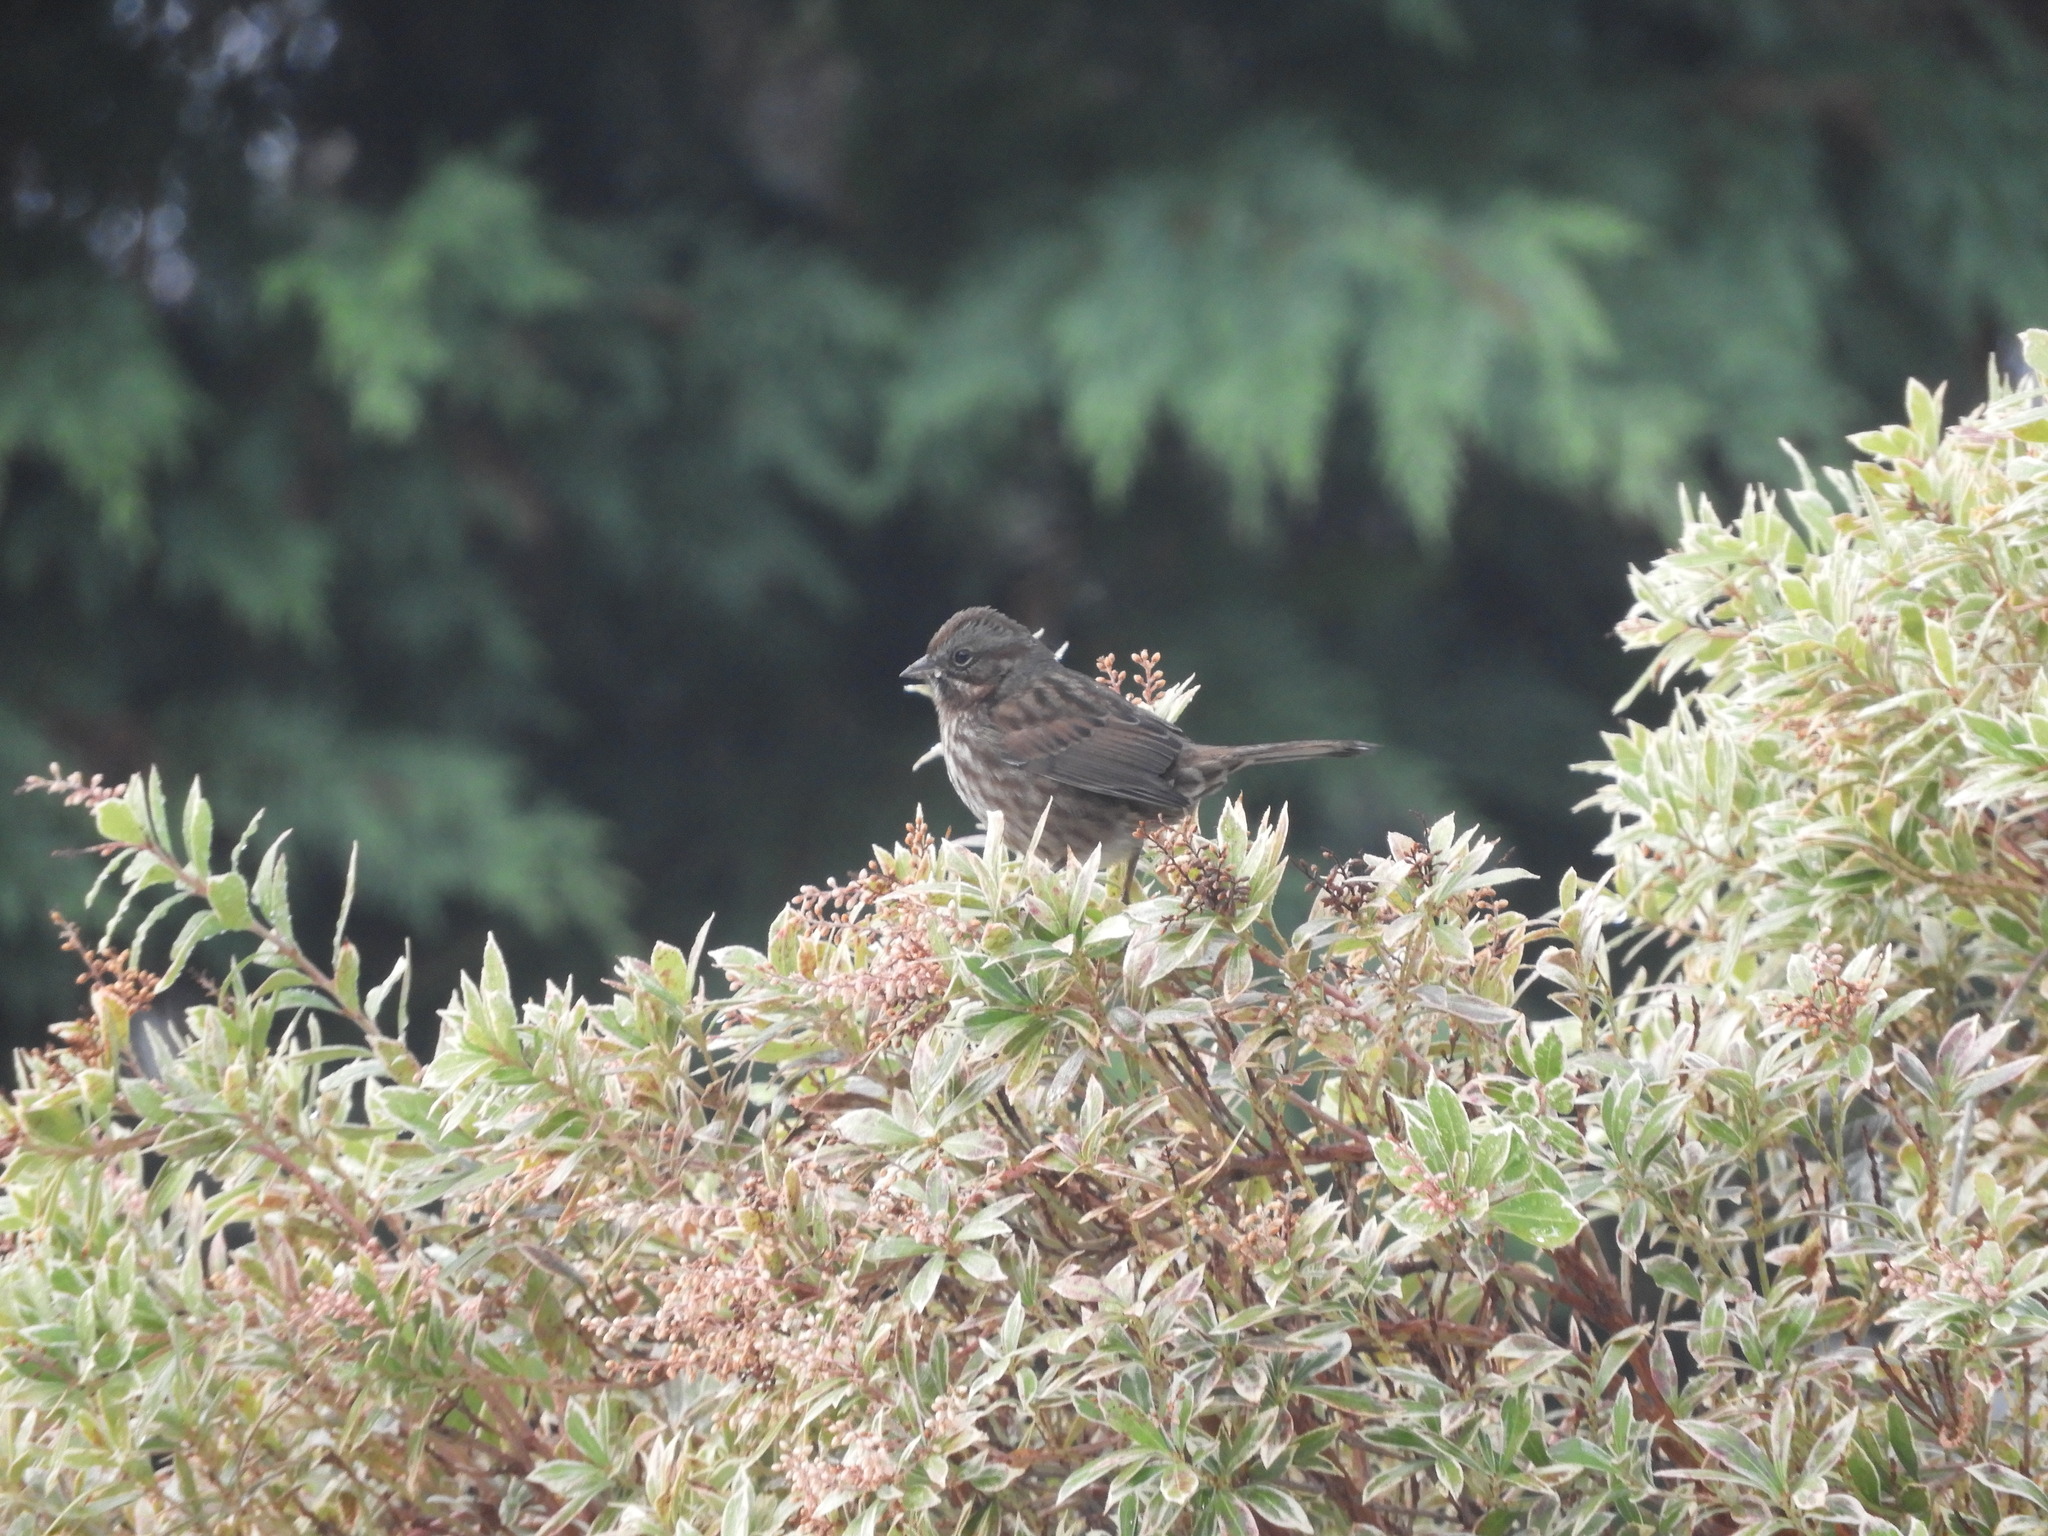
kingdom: Animalia
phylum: Chordata
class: Aves
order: Passeriformes
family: Passerellidae
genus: Melospiza
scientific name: Melospiza melodia
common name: Song sparrow
